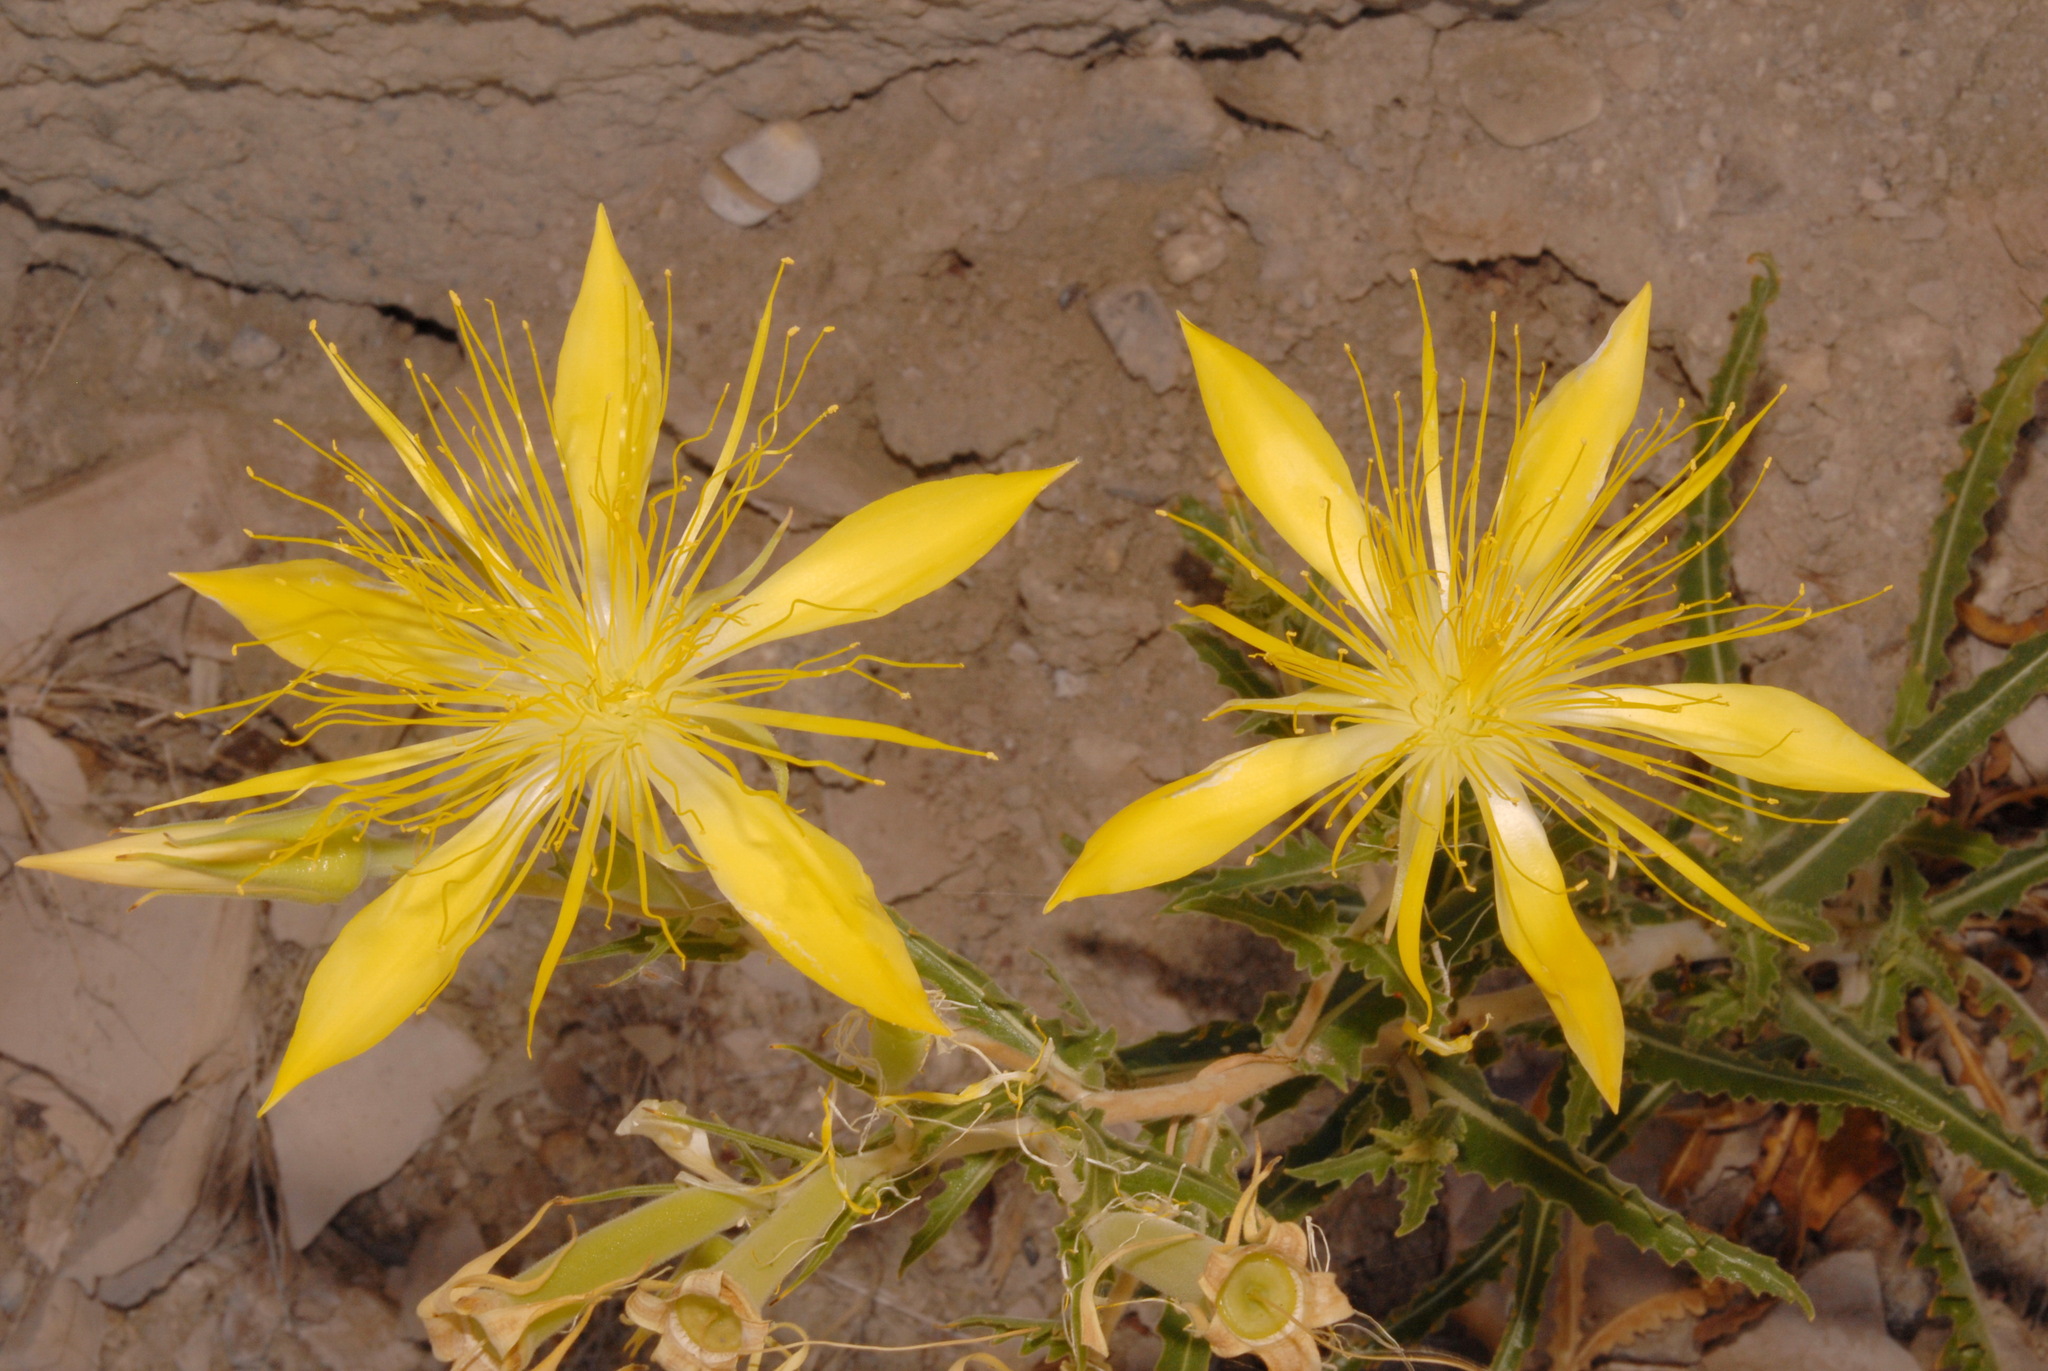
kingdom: Plantae
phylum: Tracheophyta
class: Magnoliopsida
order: Cornales
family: Loasaceae
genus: Mentzelia
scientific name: Mentzelia laevicaulis
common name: Smooth-stem blazingstar
